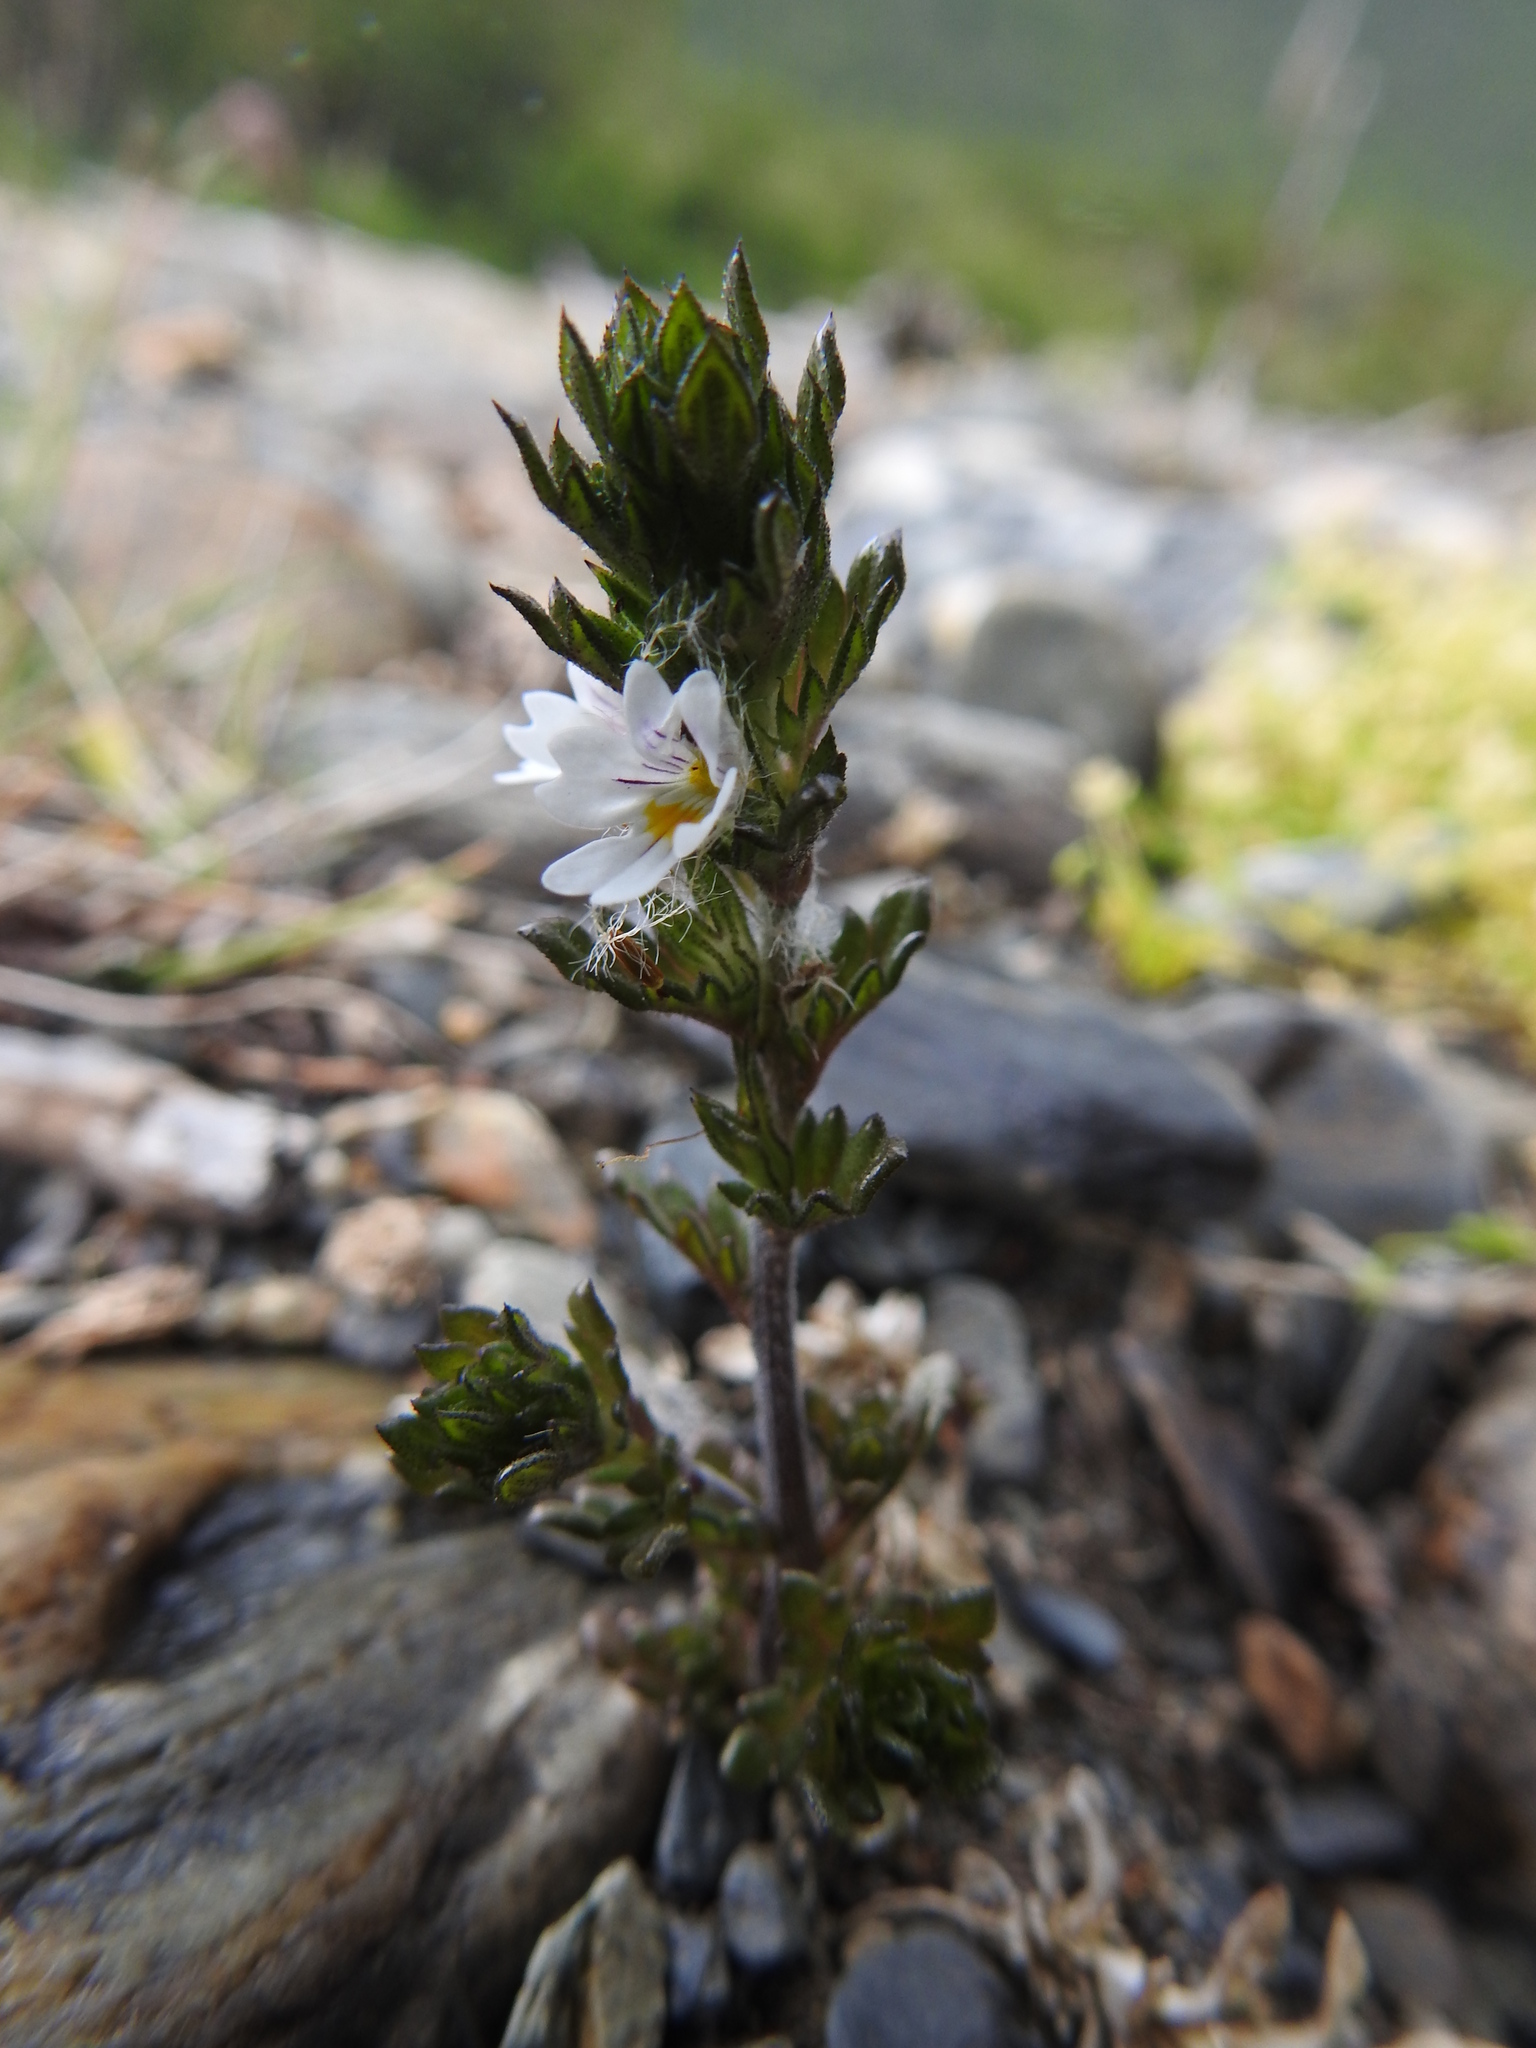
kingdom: Plantae
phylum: Tracheophyta
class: Magnoliopsida
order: Lamiales
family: Orobanchaceae
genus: Euphrasia
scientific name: Euphrasia officinalis
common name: Eyebright
